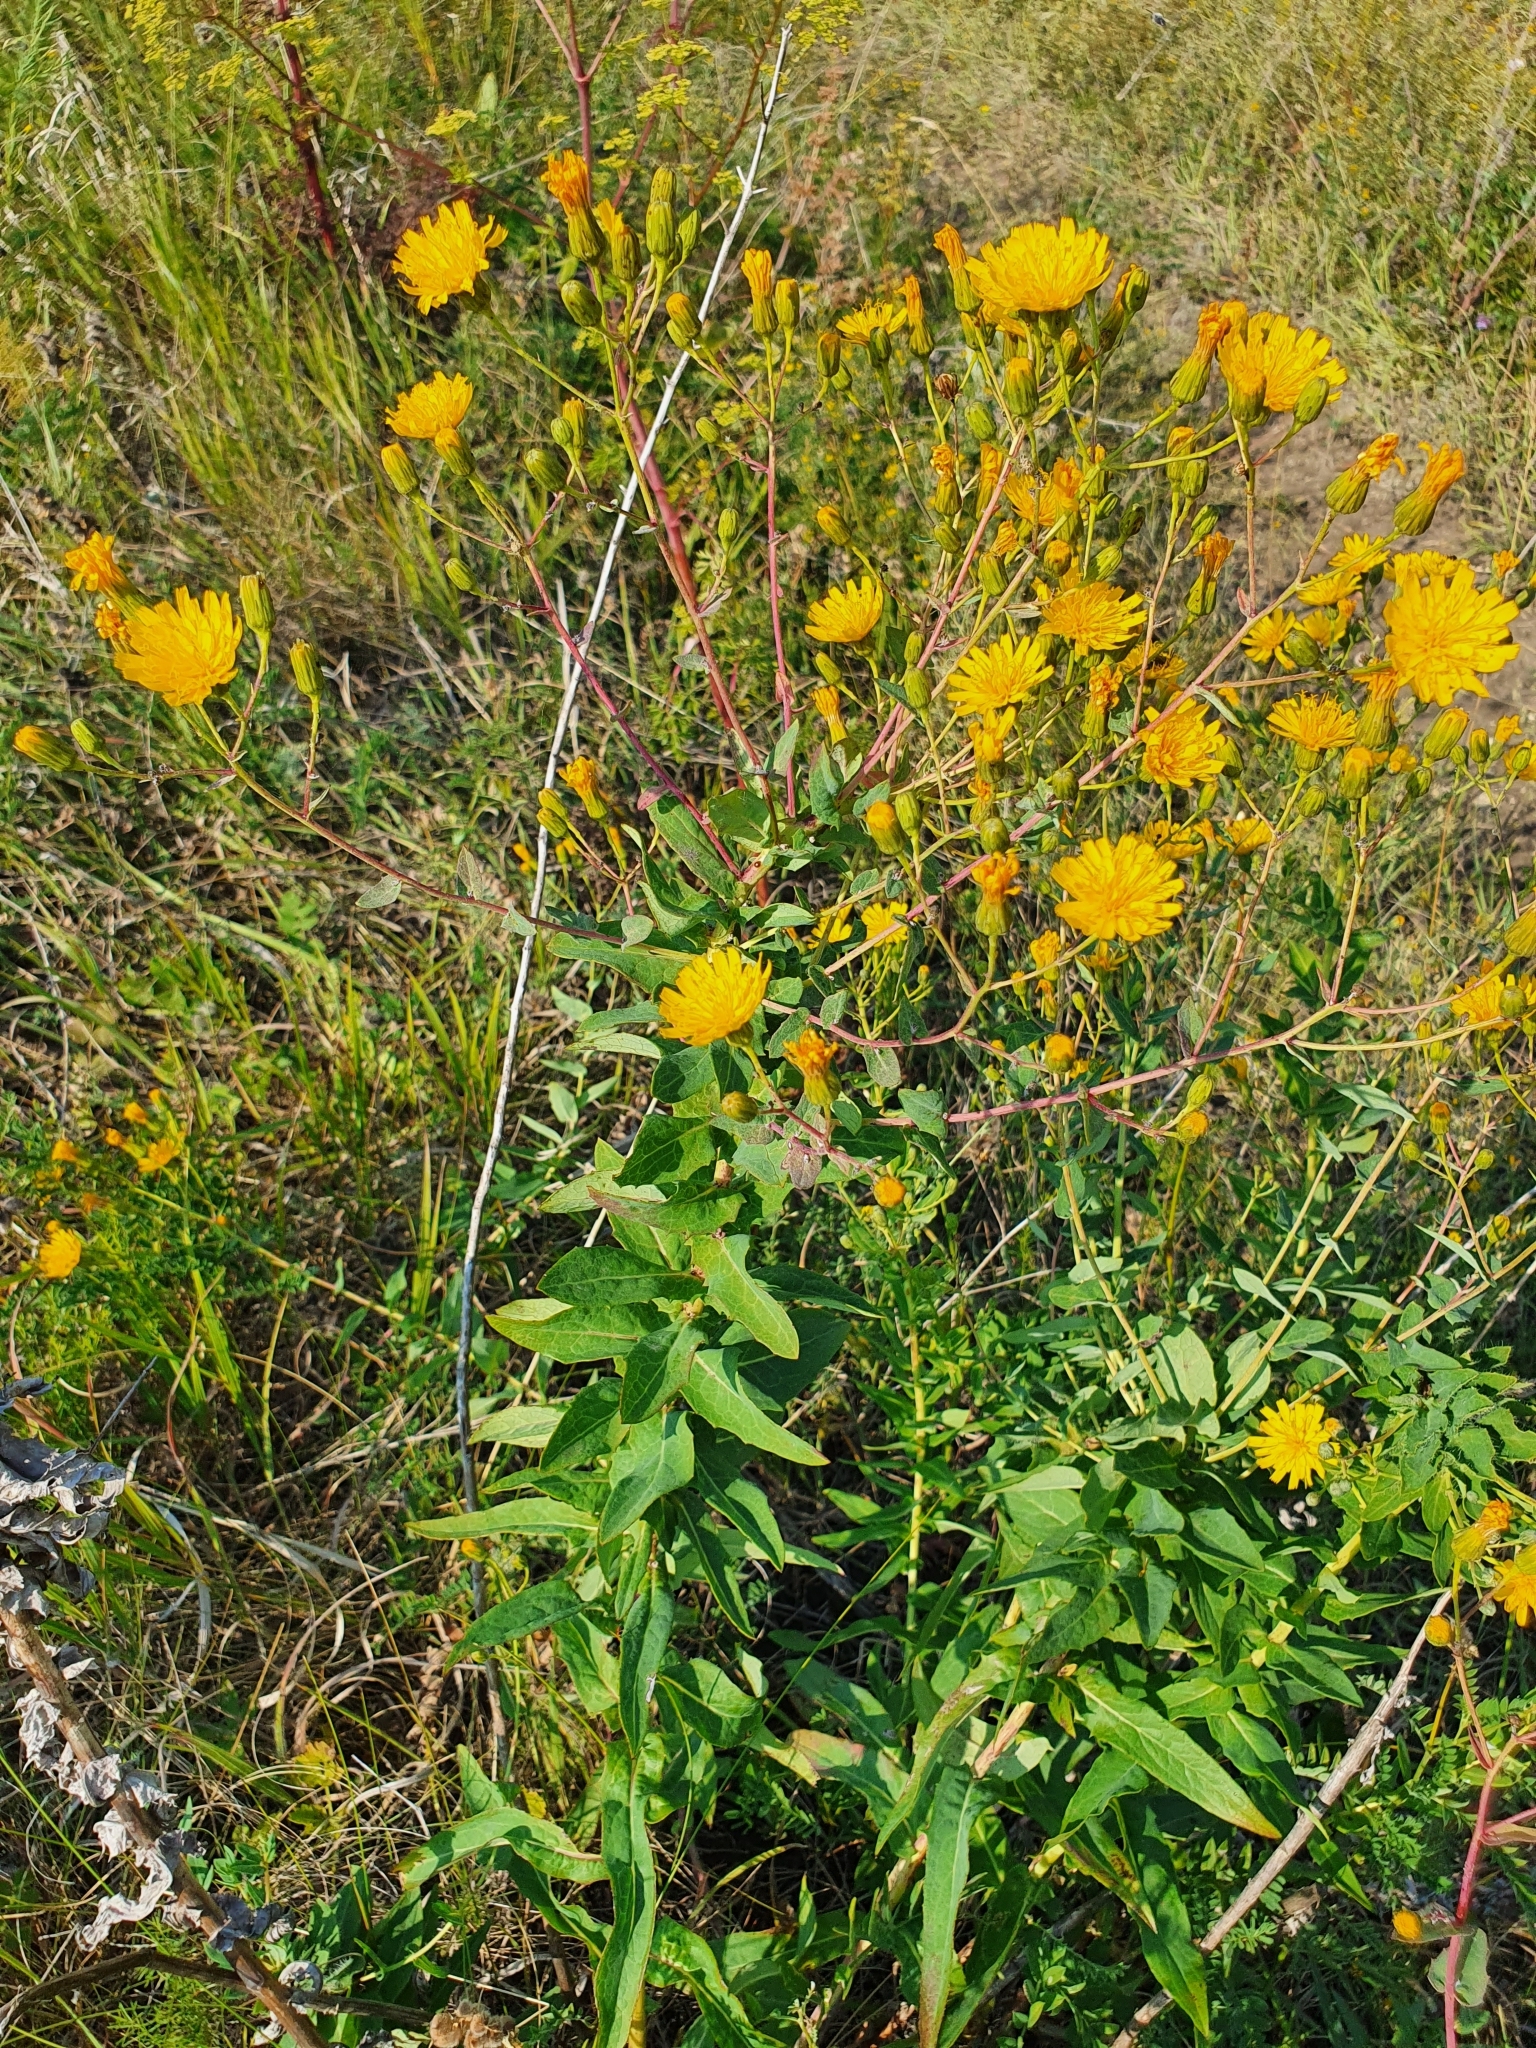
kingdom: Plantae
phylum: Tracheophyta
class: Magnoliopsida
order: Asterales
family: Asteraceae
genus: Hieracium
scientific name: Hieracium virosum
